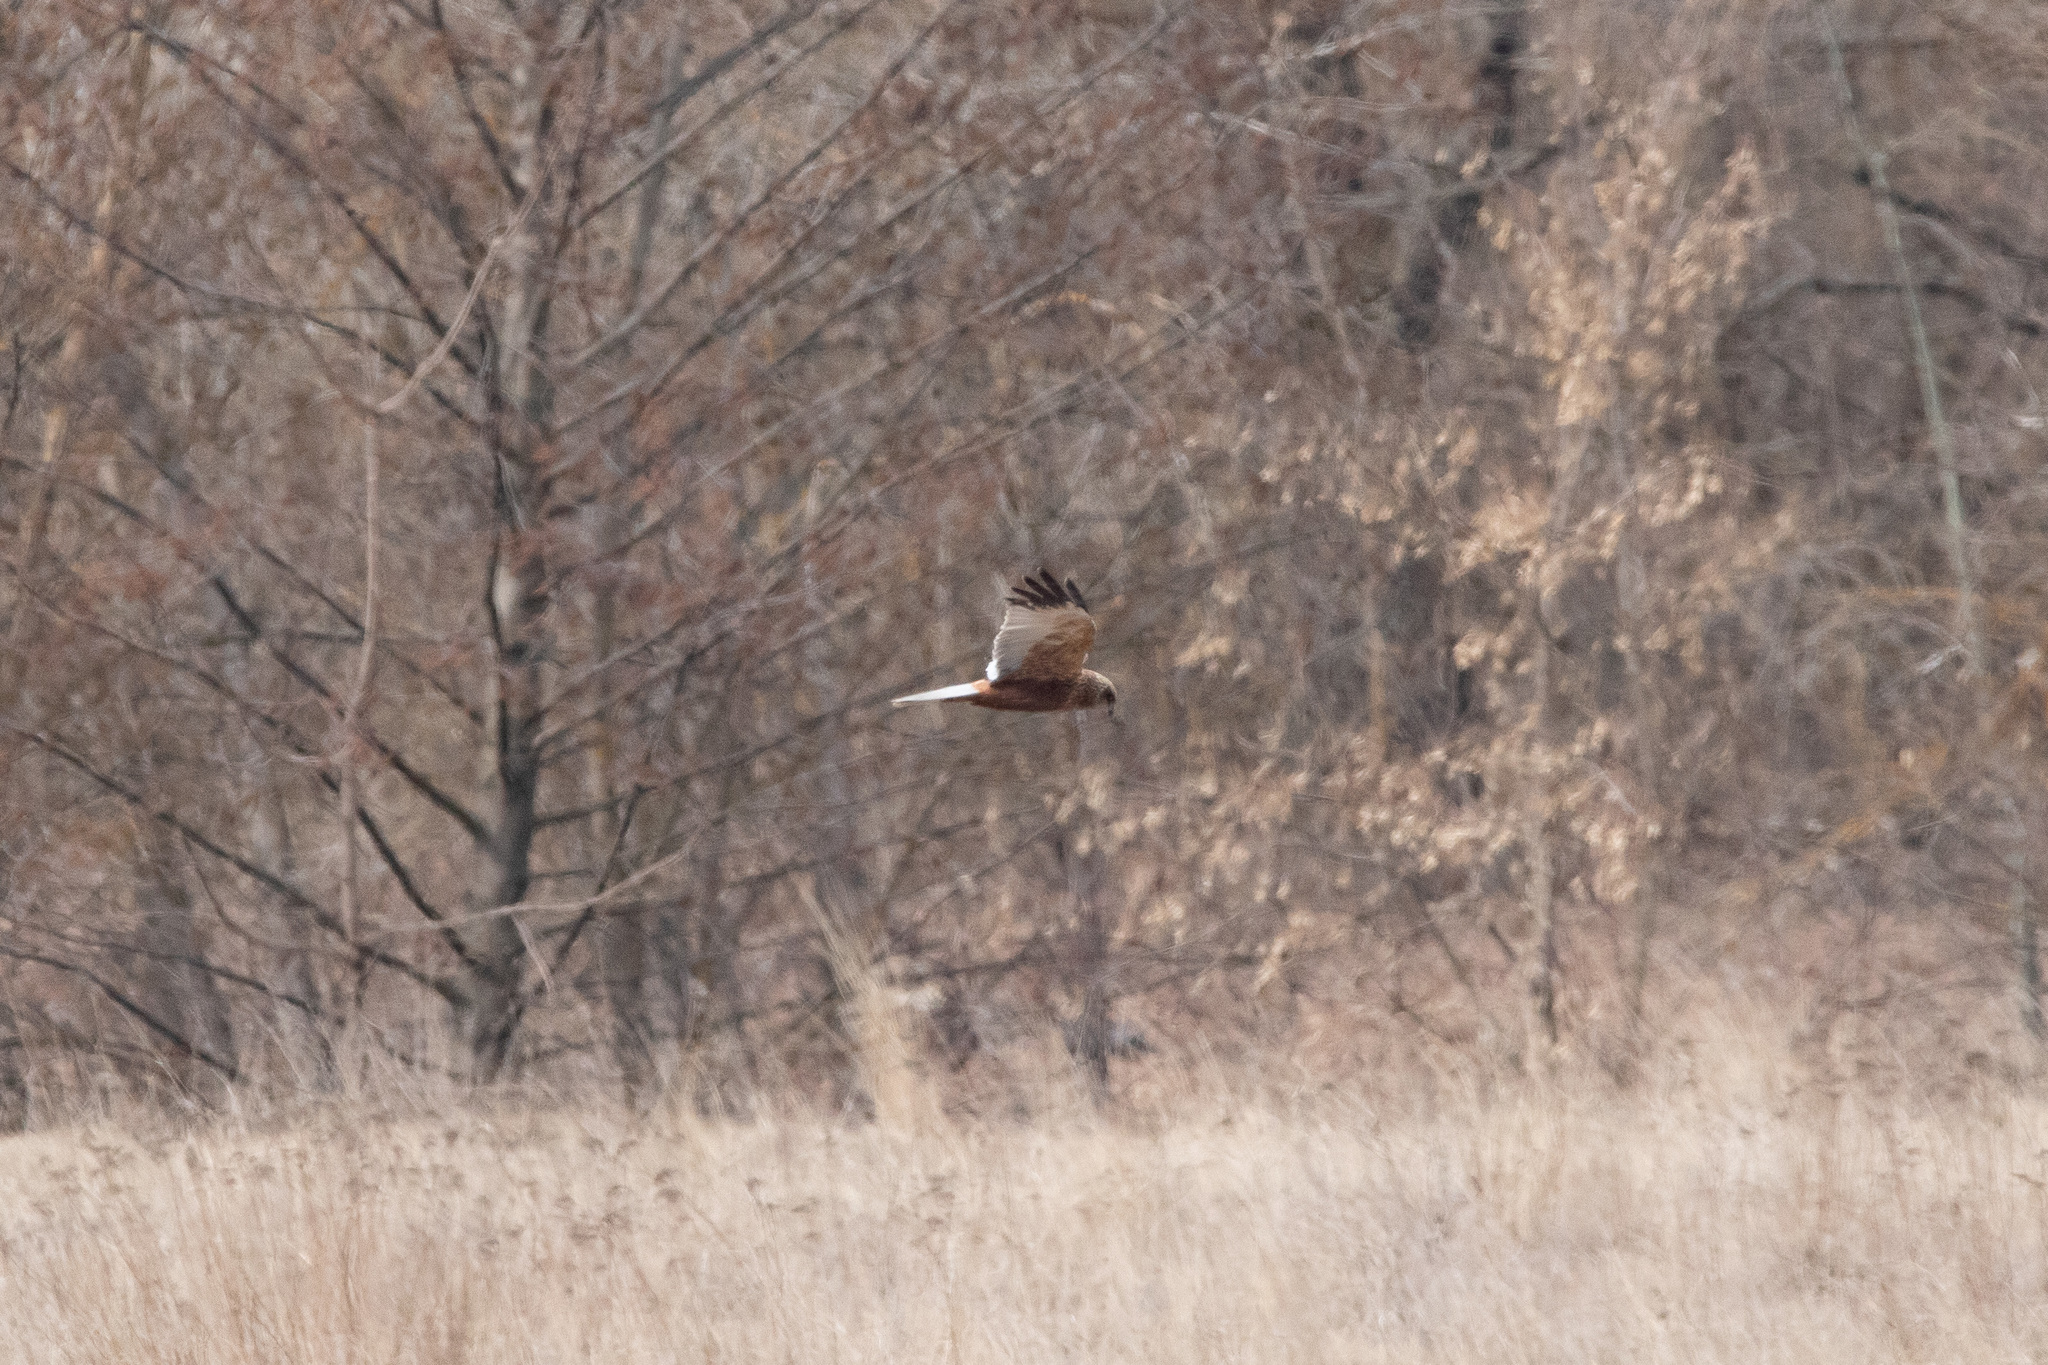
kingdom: Animalia
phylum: Chordata
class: Aves
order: Accipitriformes
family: Accipitridae
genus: Circus
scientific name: Circus aeruginosus
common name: Western marsh harrier
